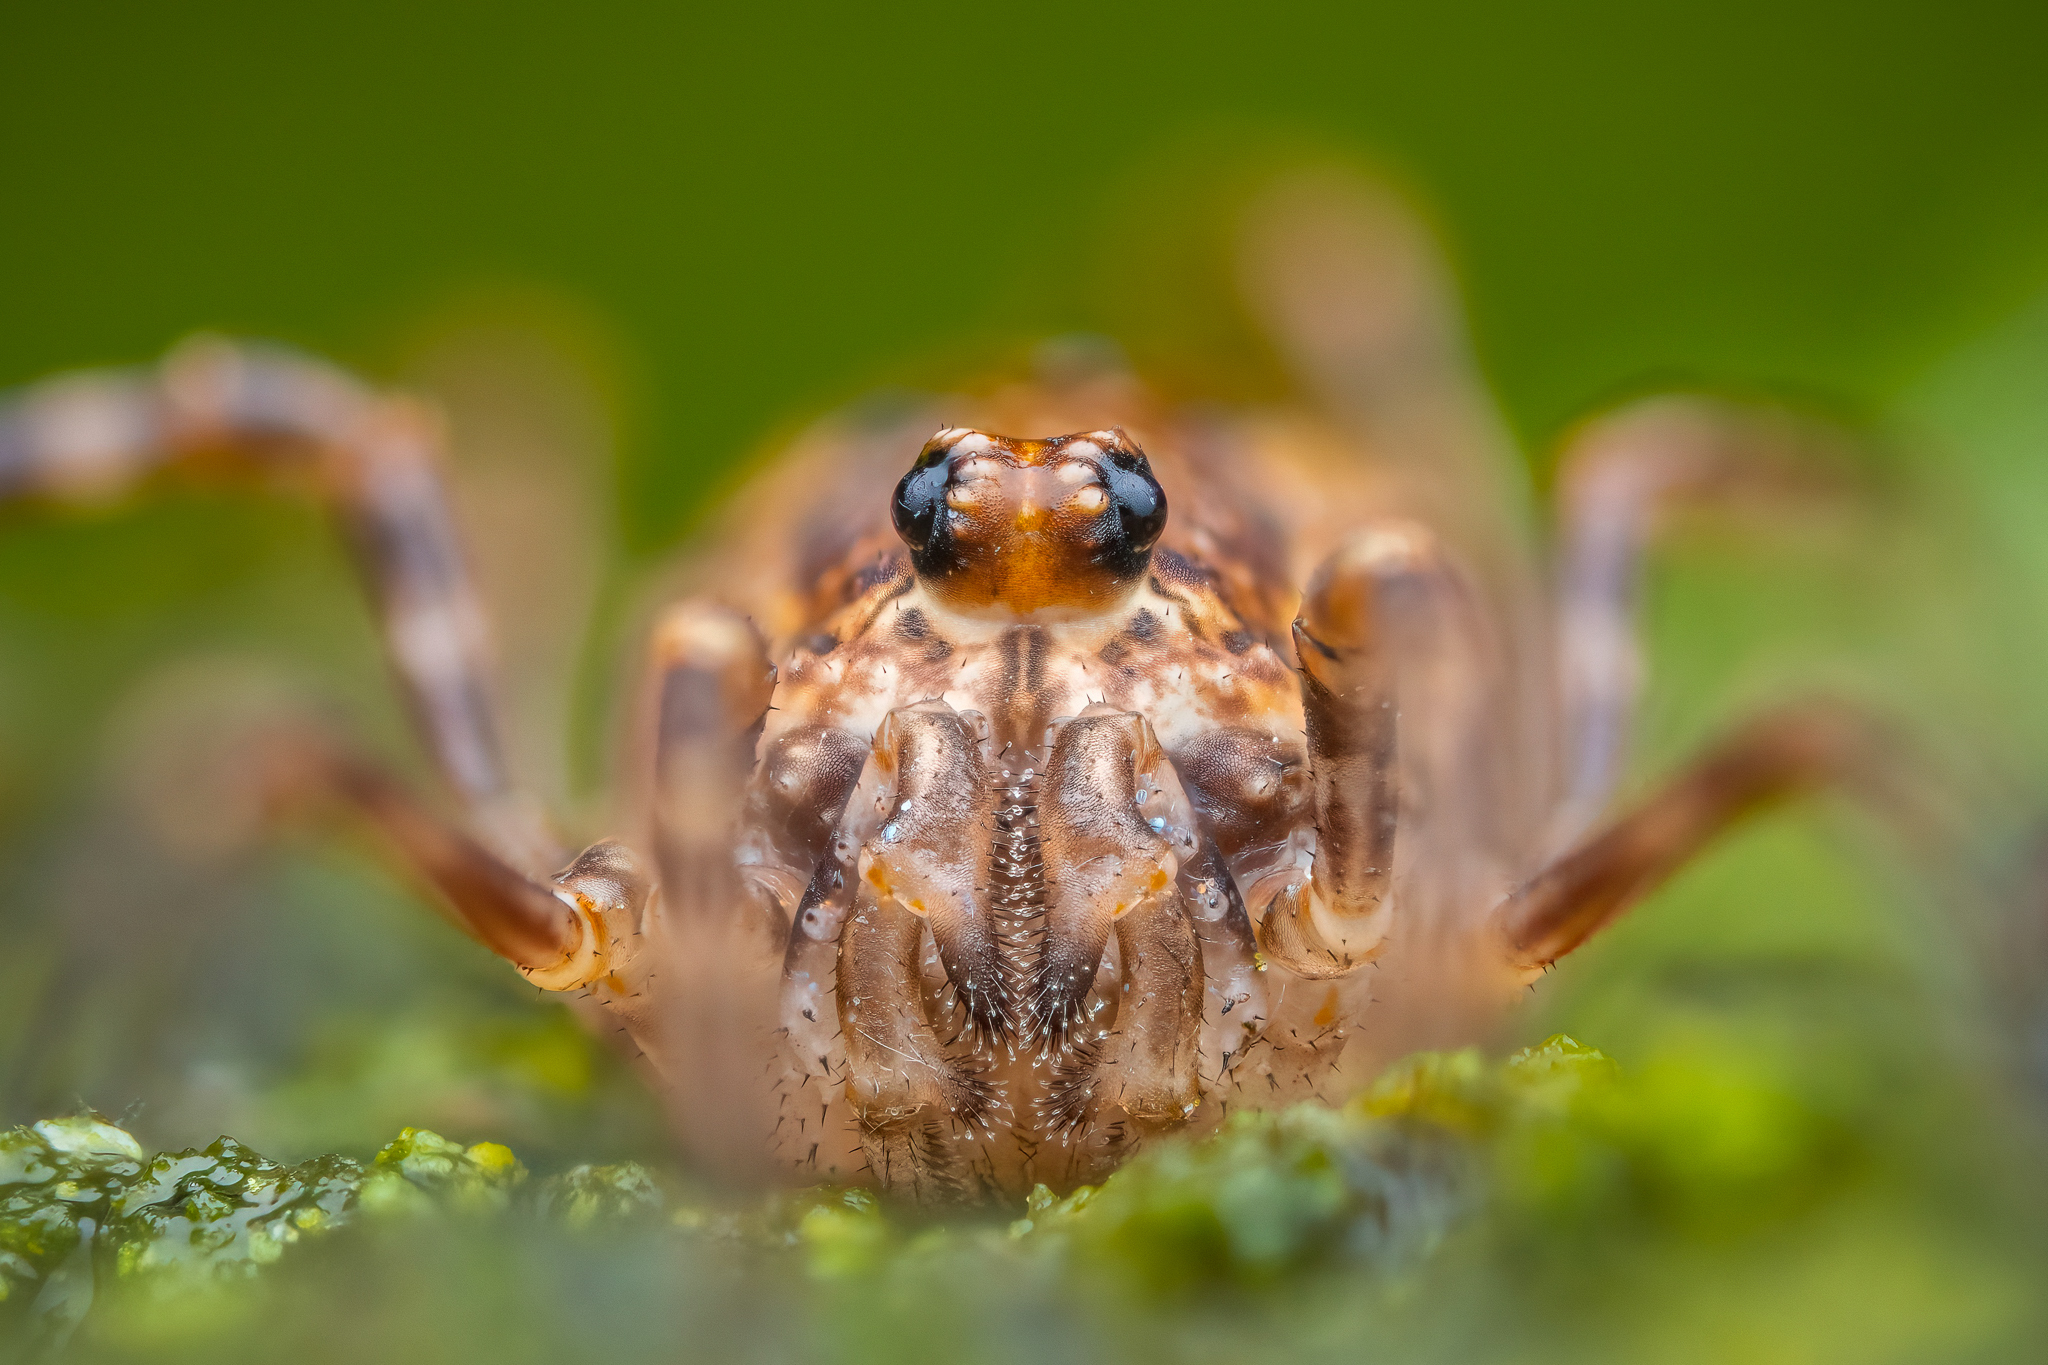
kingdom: Animalia
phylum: Arthropoda
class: Arachnida
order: Opiliones
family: Phalangiidae
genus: Rilaena
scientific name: Rilaena triangularis
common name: Spring harvestman
